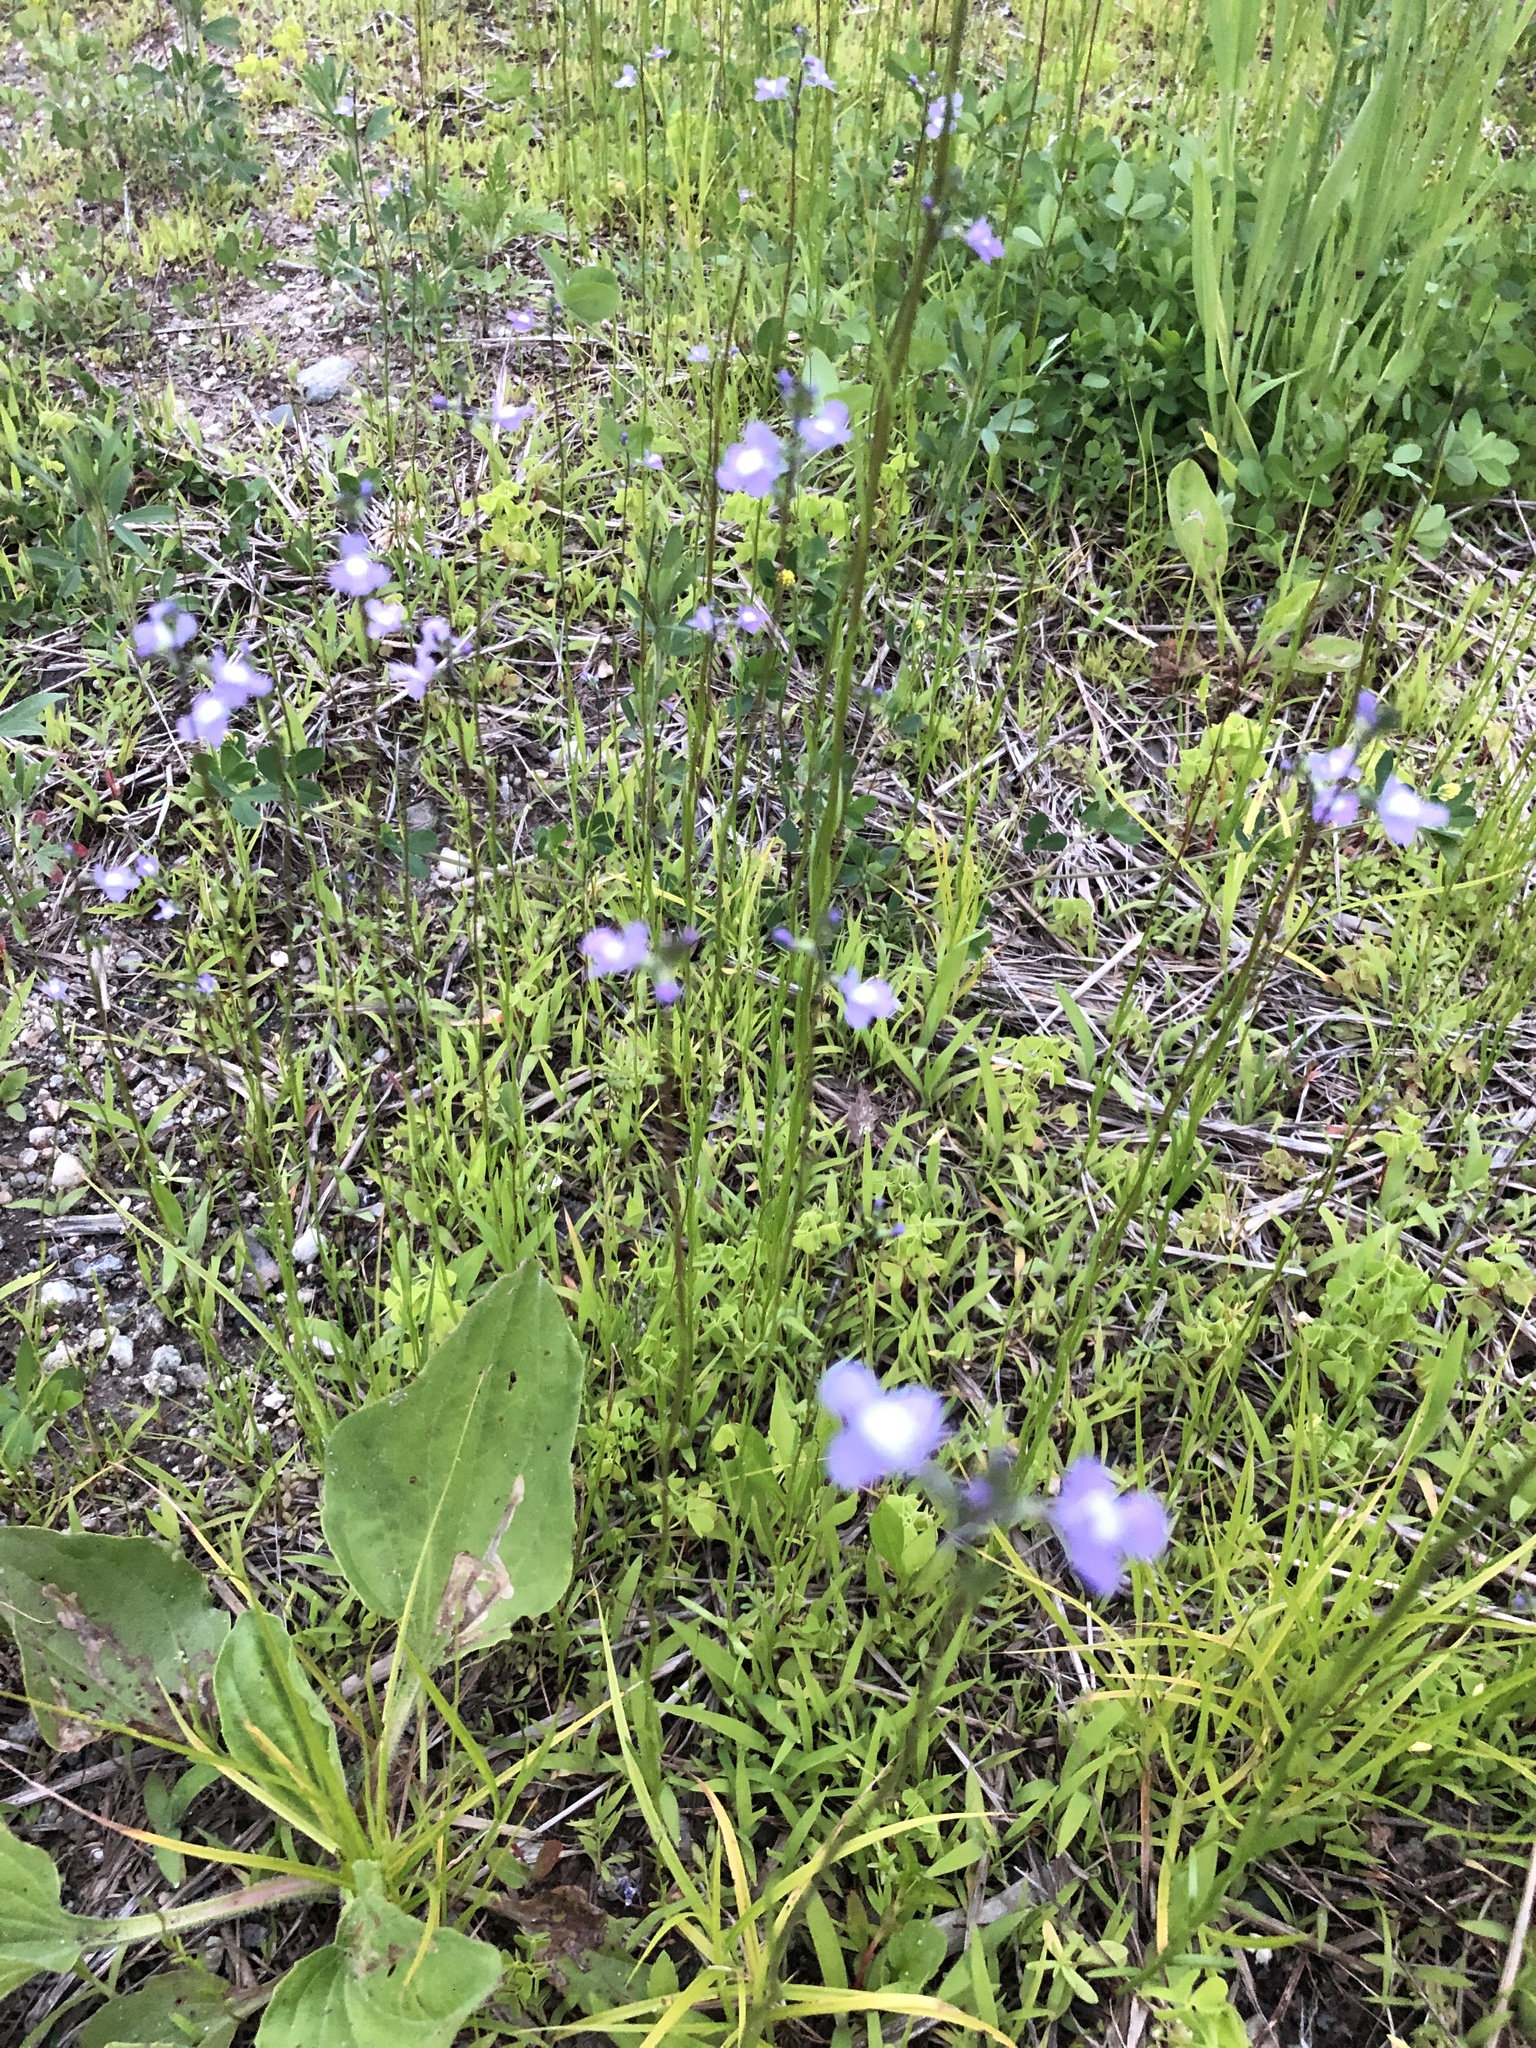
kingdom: Plantae
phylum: Tracheophyta
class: Magnoliopsida
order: Lamiales
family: Plantaginaceae
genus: Nuttallanthus
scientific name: Nuttallanthus canadensis
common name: Blue toadflax
